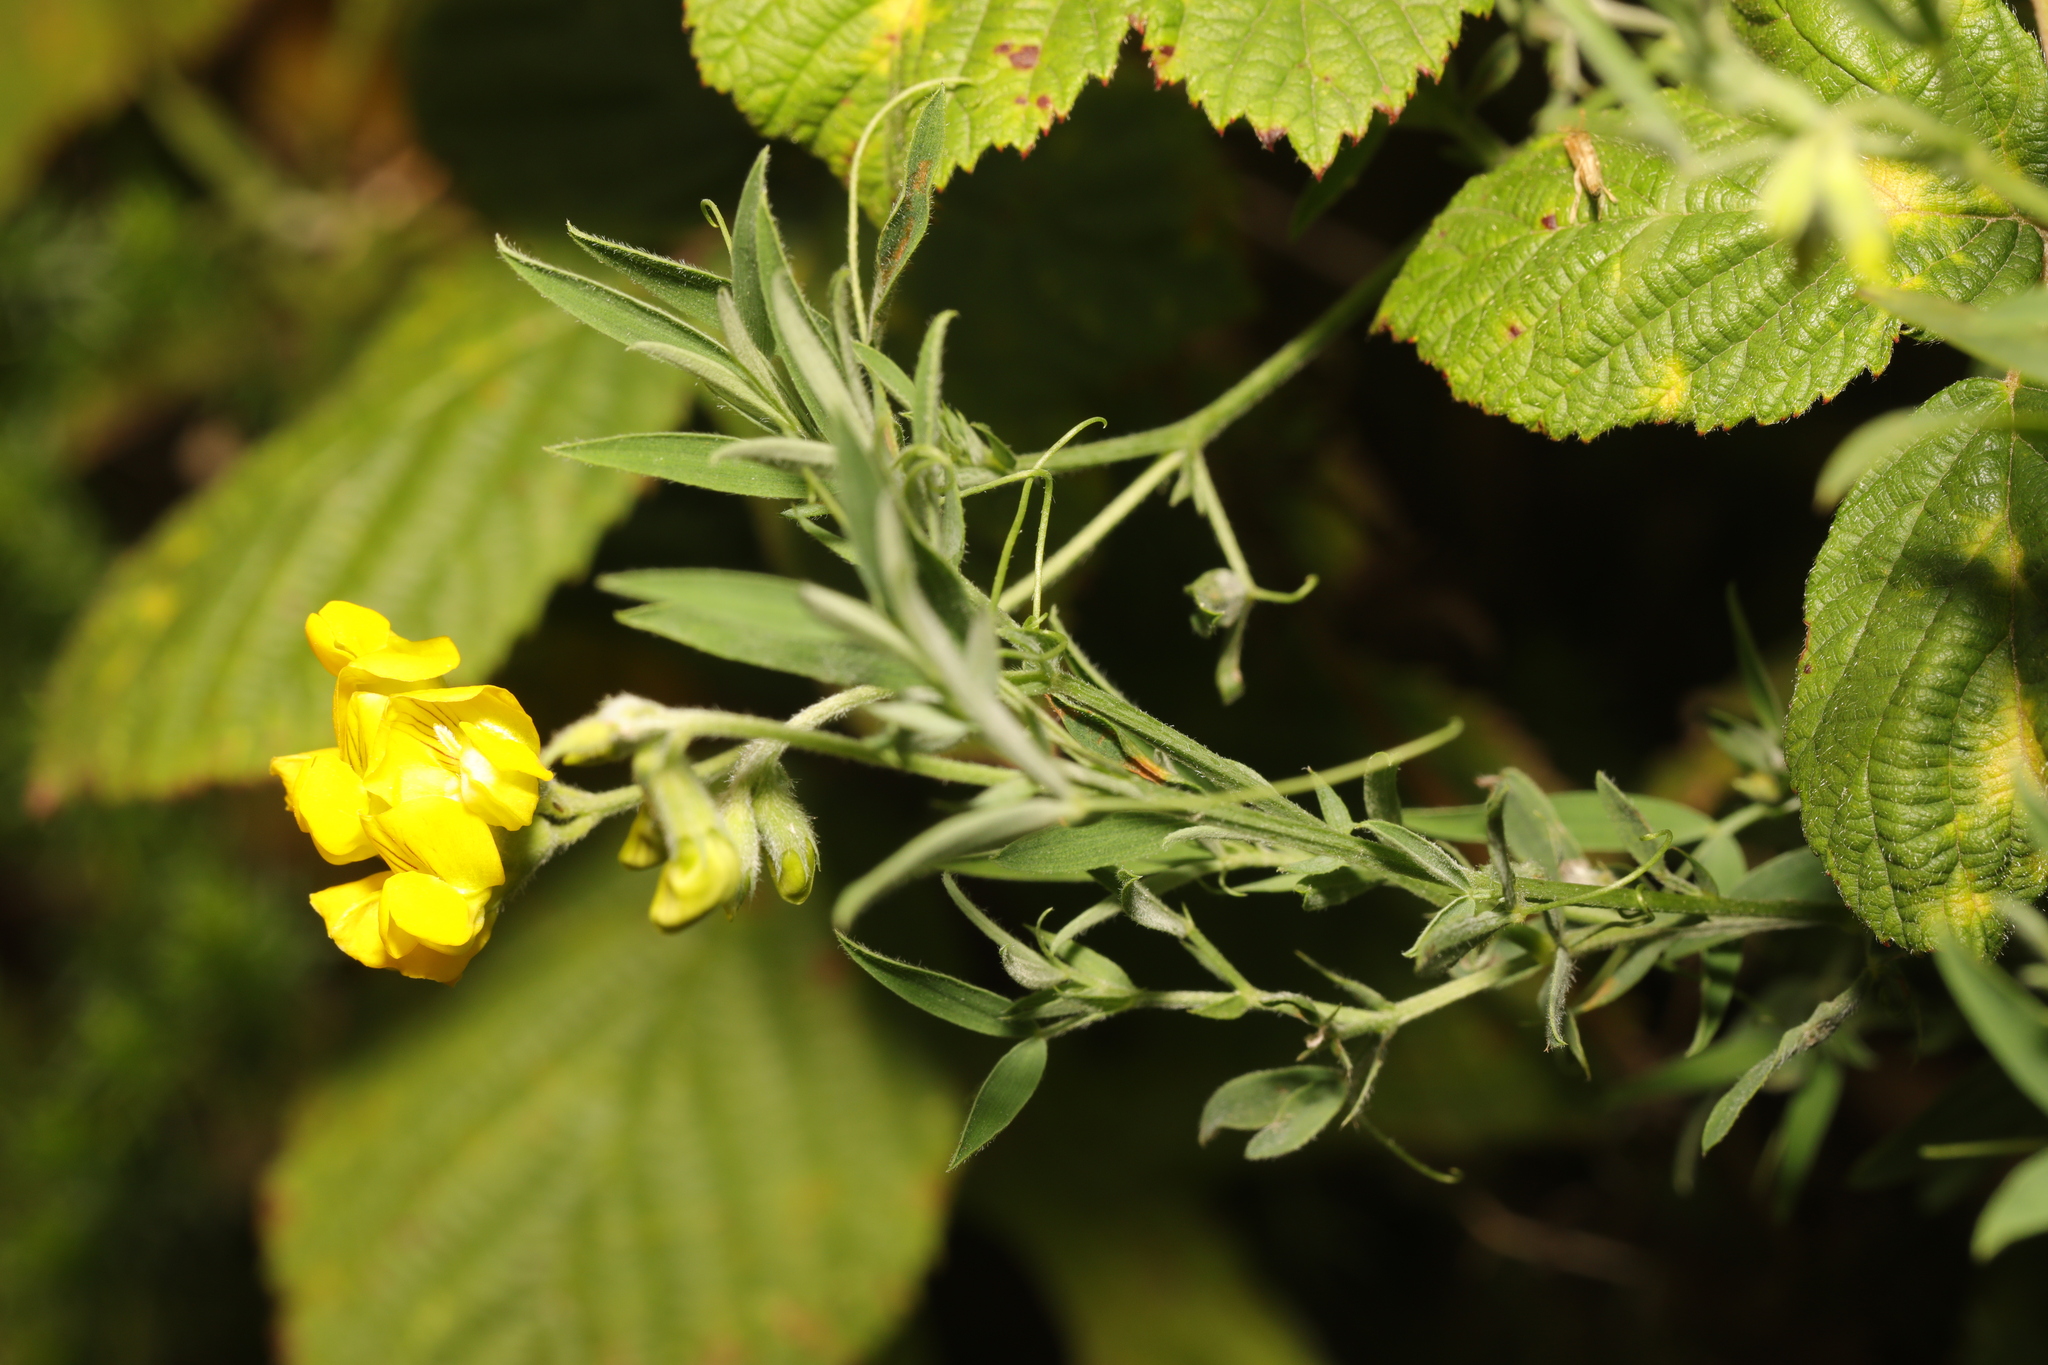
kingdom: Plantae
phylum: Tracheophyta
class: Magnoliopsida
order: Fabales
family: Fabaceae
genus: Lathyrus
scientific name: Lathyrus pratensis
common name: Meadow vetchling
